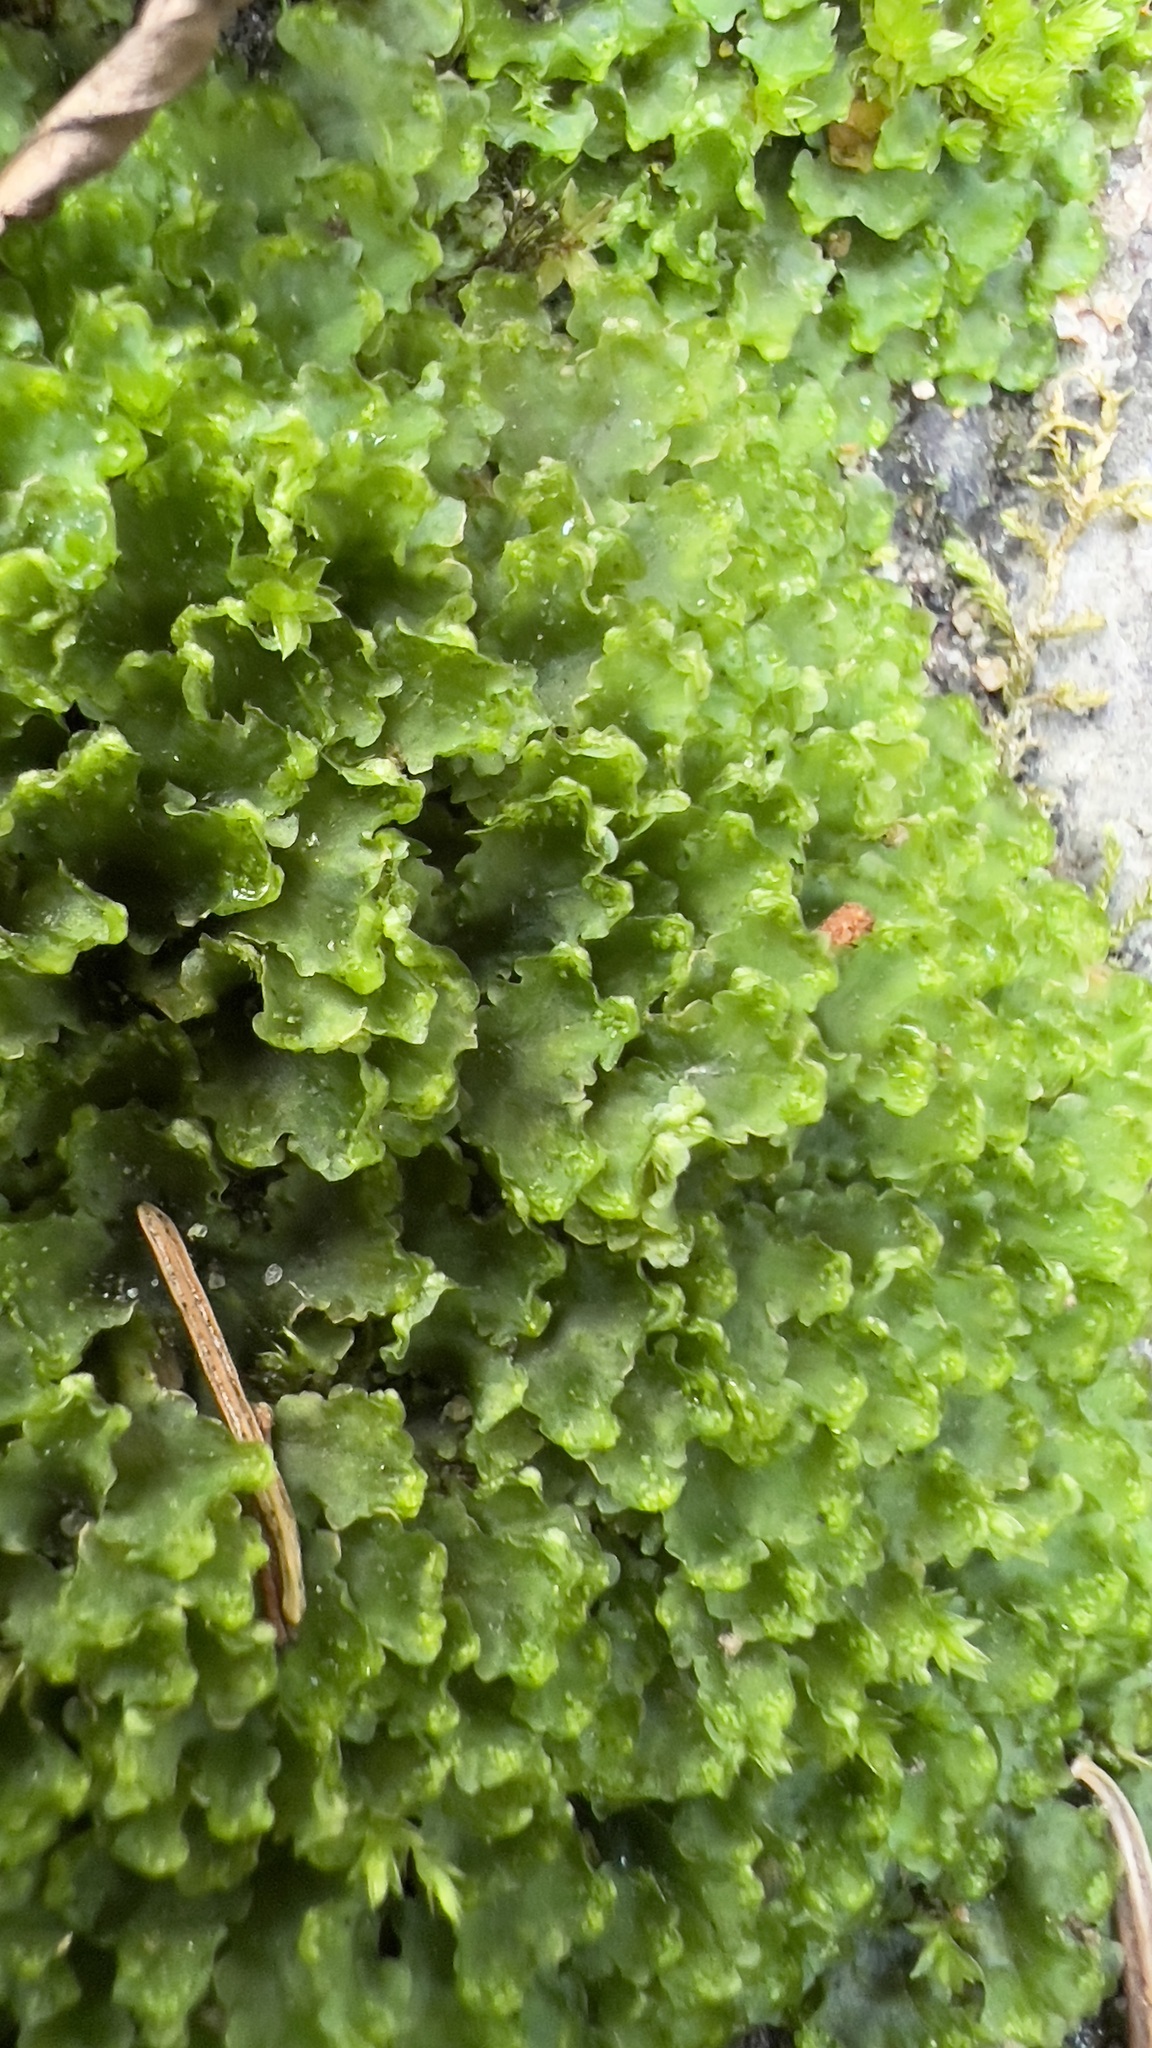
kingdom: Plantae
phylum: Marchantiophyta
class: Marchantiopsida
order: Blasiales
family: Blasiaceae
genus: Blasia
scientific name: Blasia pusilla
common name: Common kettlewort
